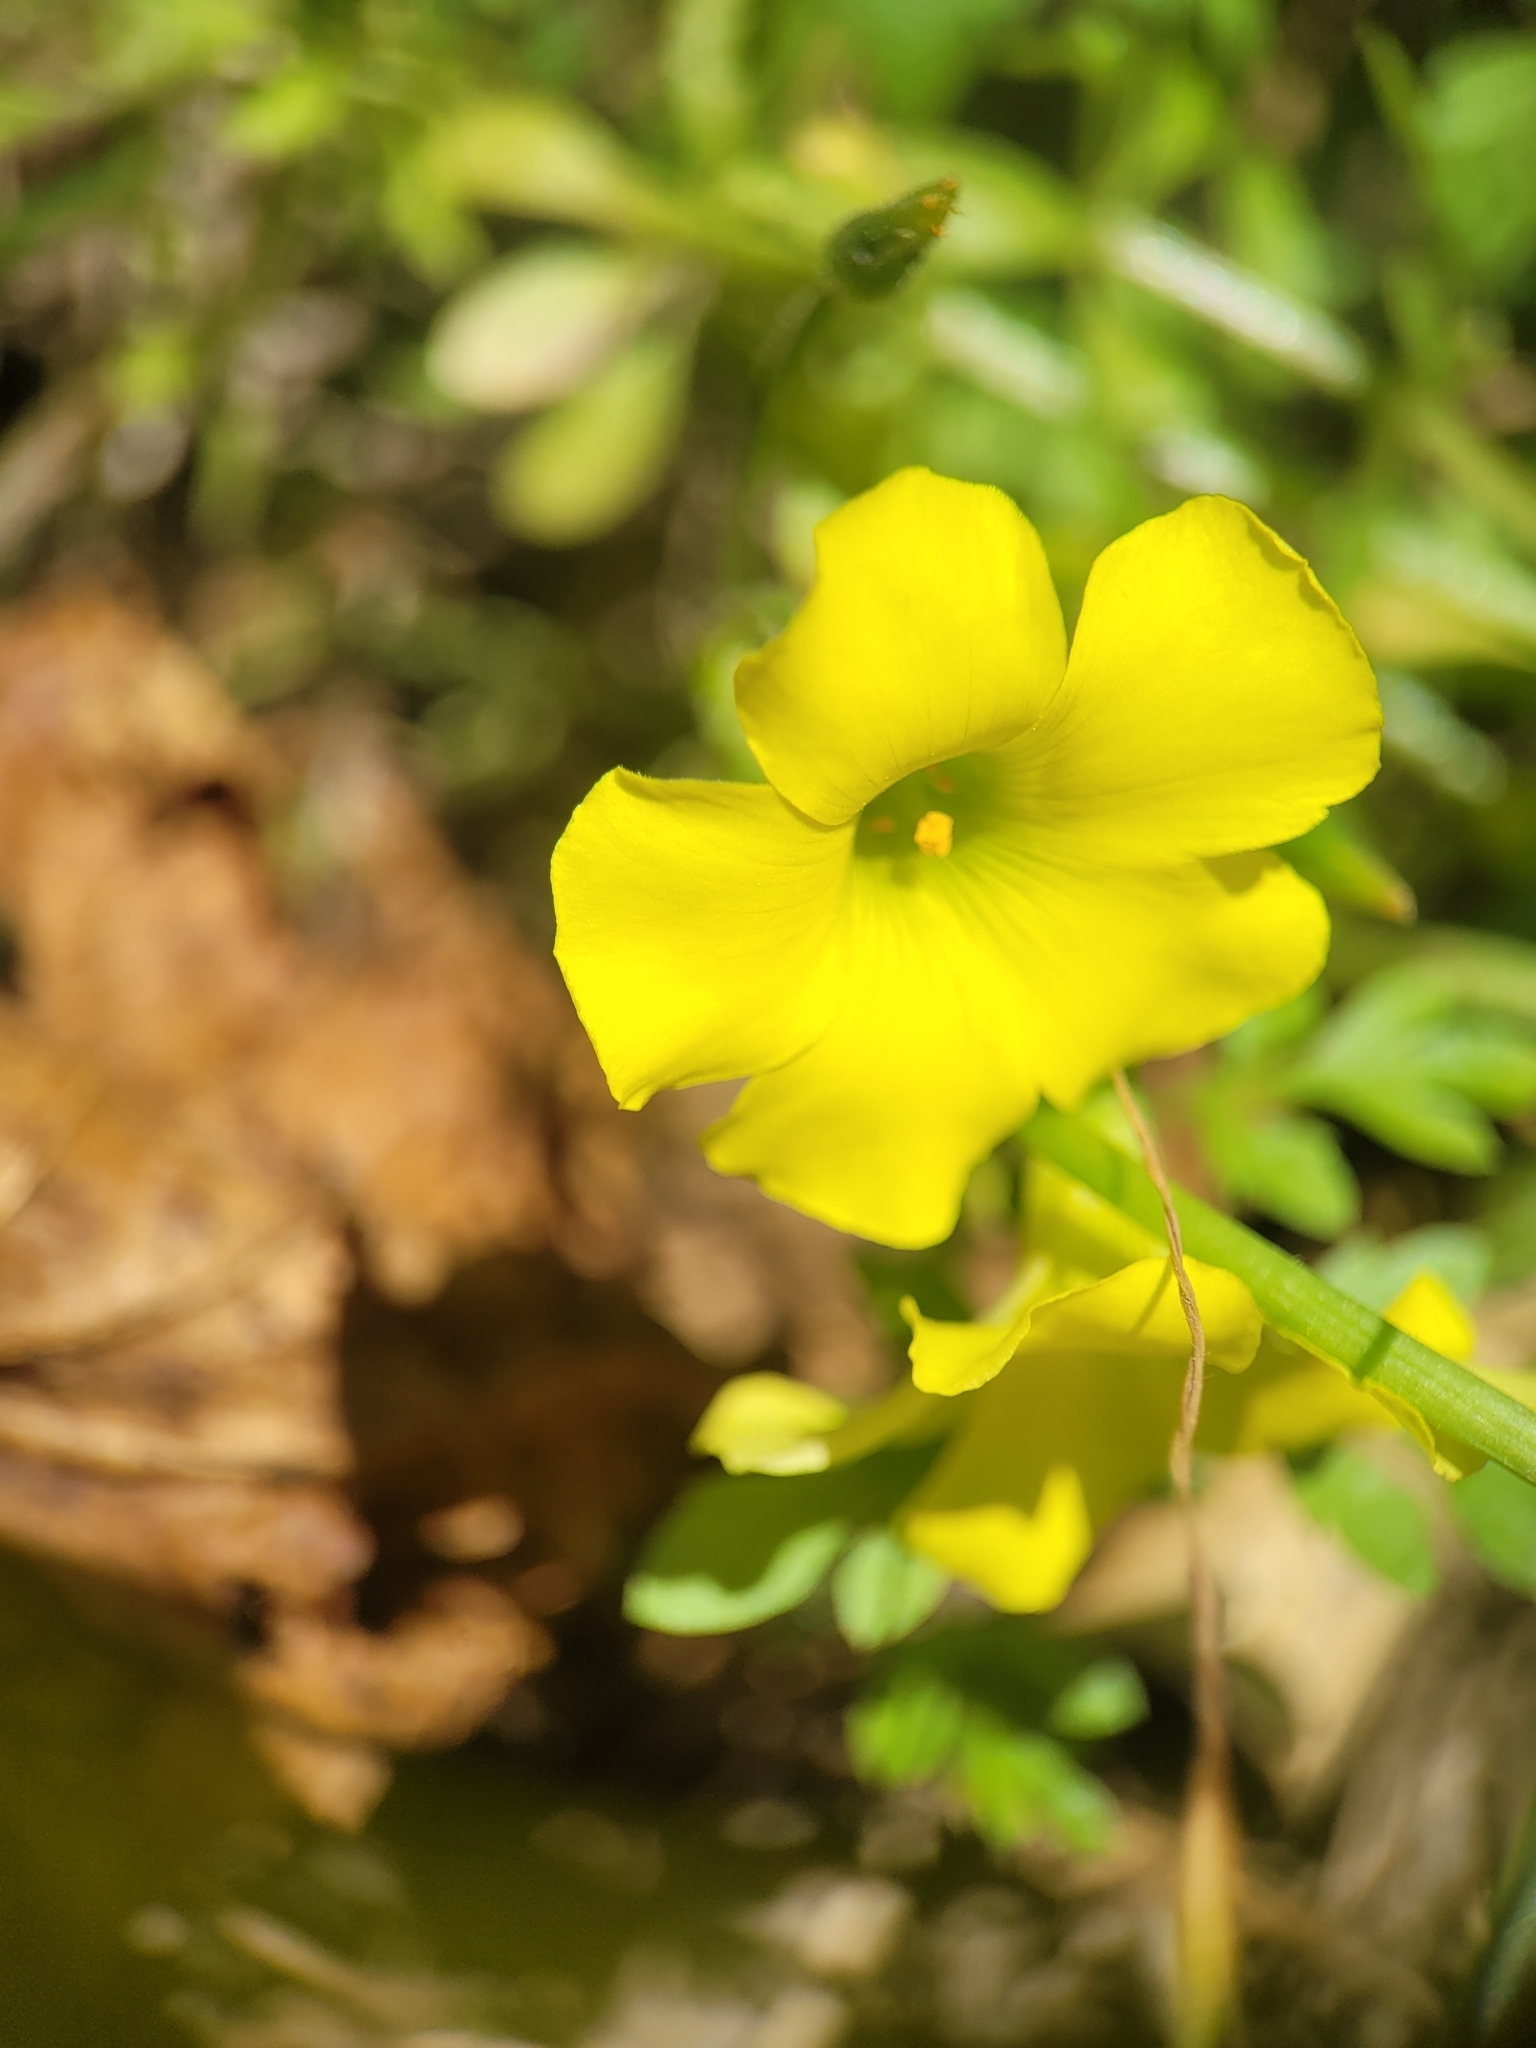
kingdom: Plantae
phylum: Tracheophyta
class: Magnoliopsida
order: Oxalidales
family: Oxalidaceae
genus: Oxalis
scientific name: Oxalis pes-caprae
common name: Bermuda-buttercup
